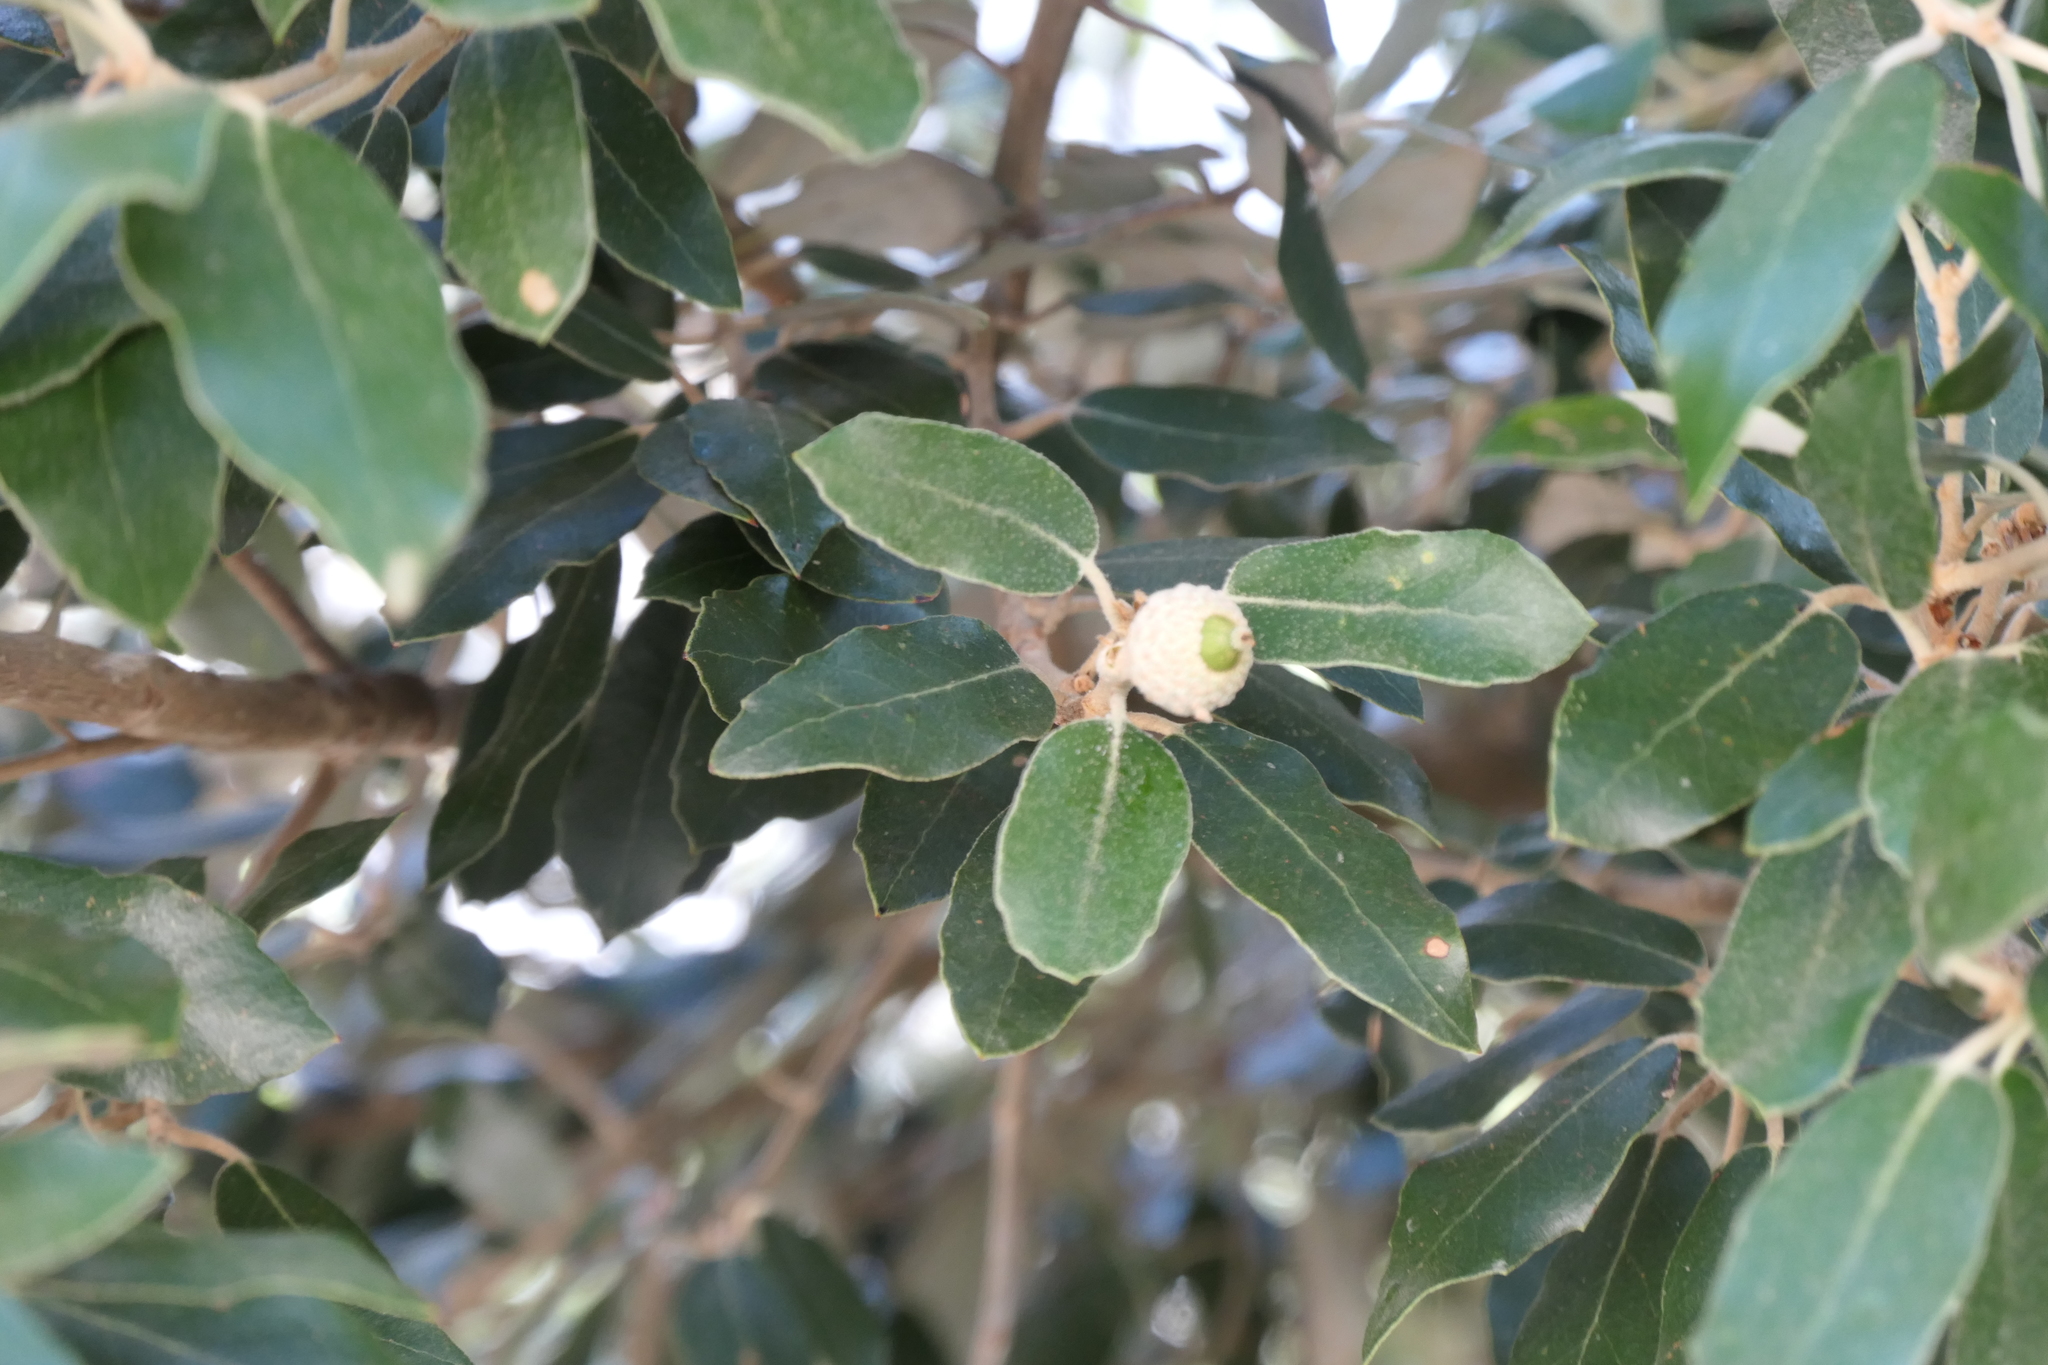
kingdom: Plantae
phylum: Tracheophyta
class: Magnoliopsida
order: Fagales
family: Fagaceae
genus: Quercus
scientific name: Quercus ilex
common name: Evergreen oak
